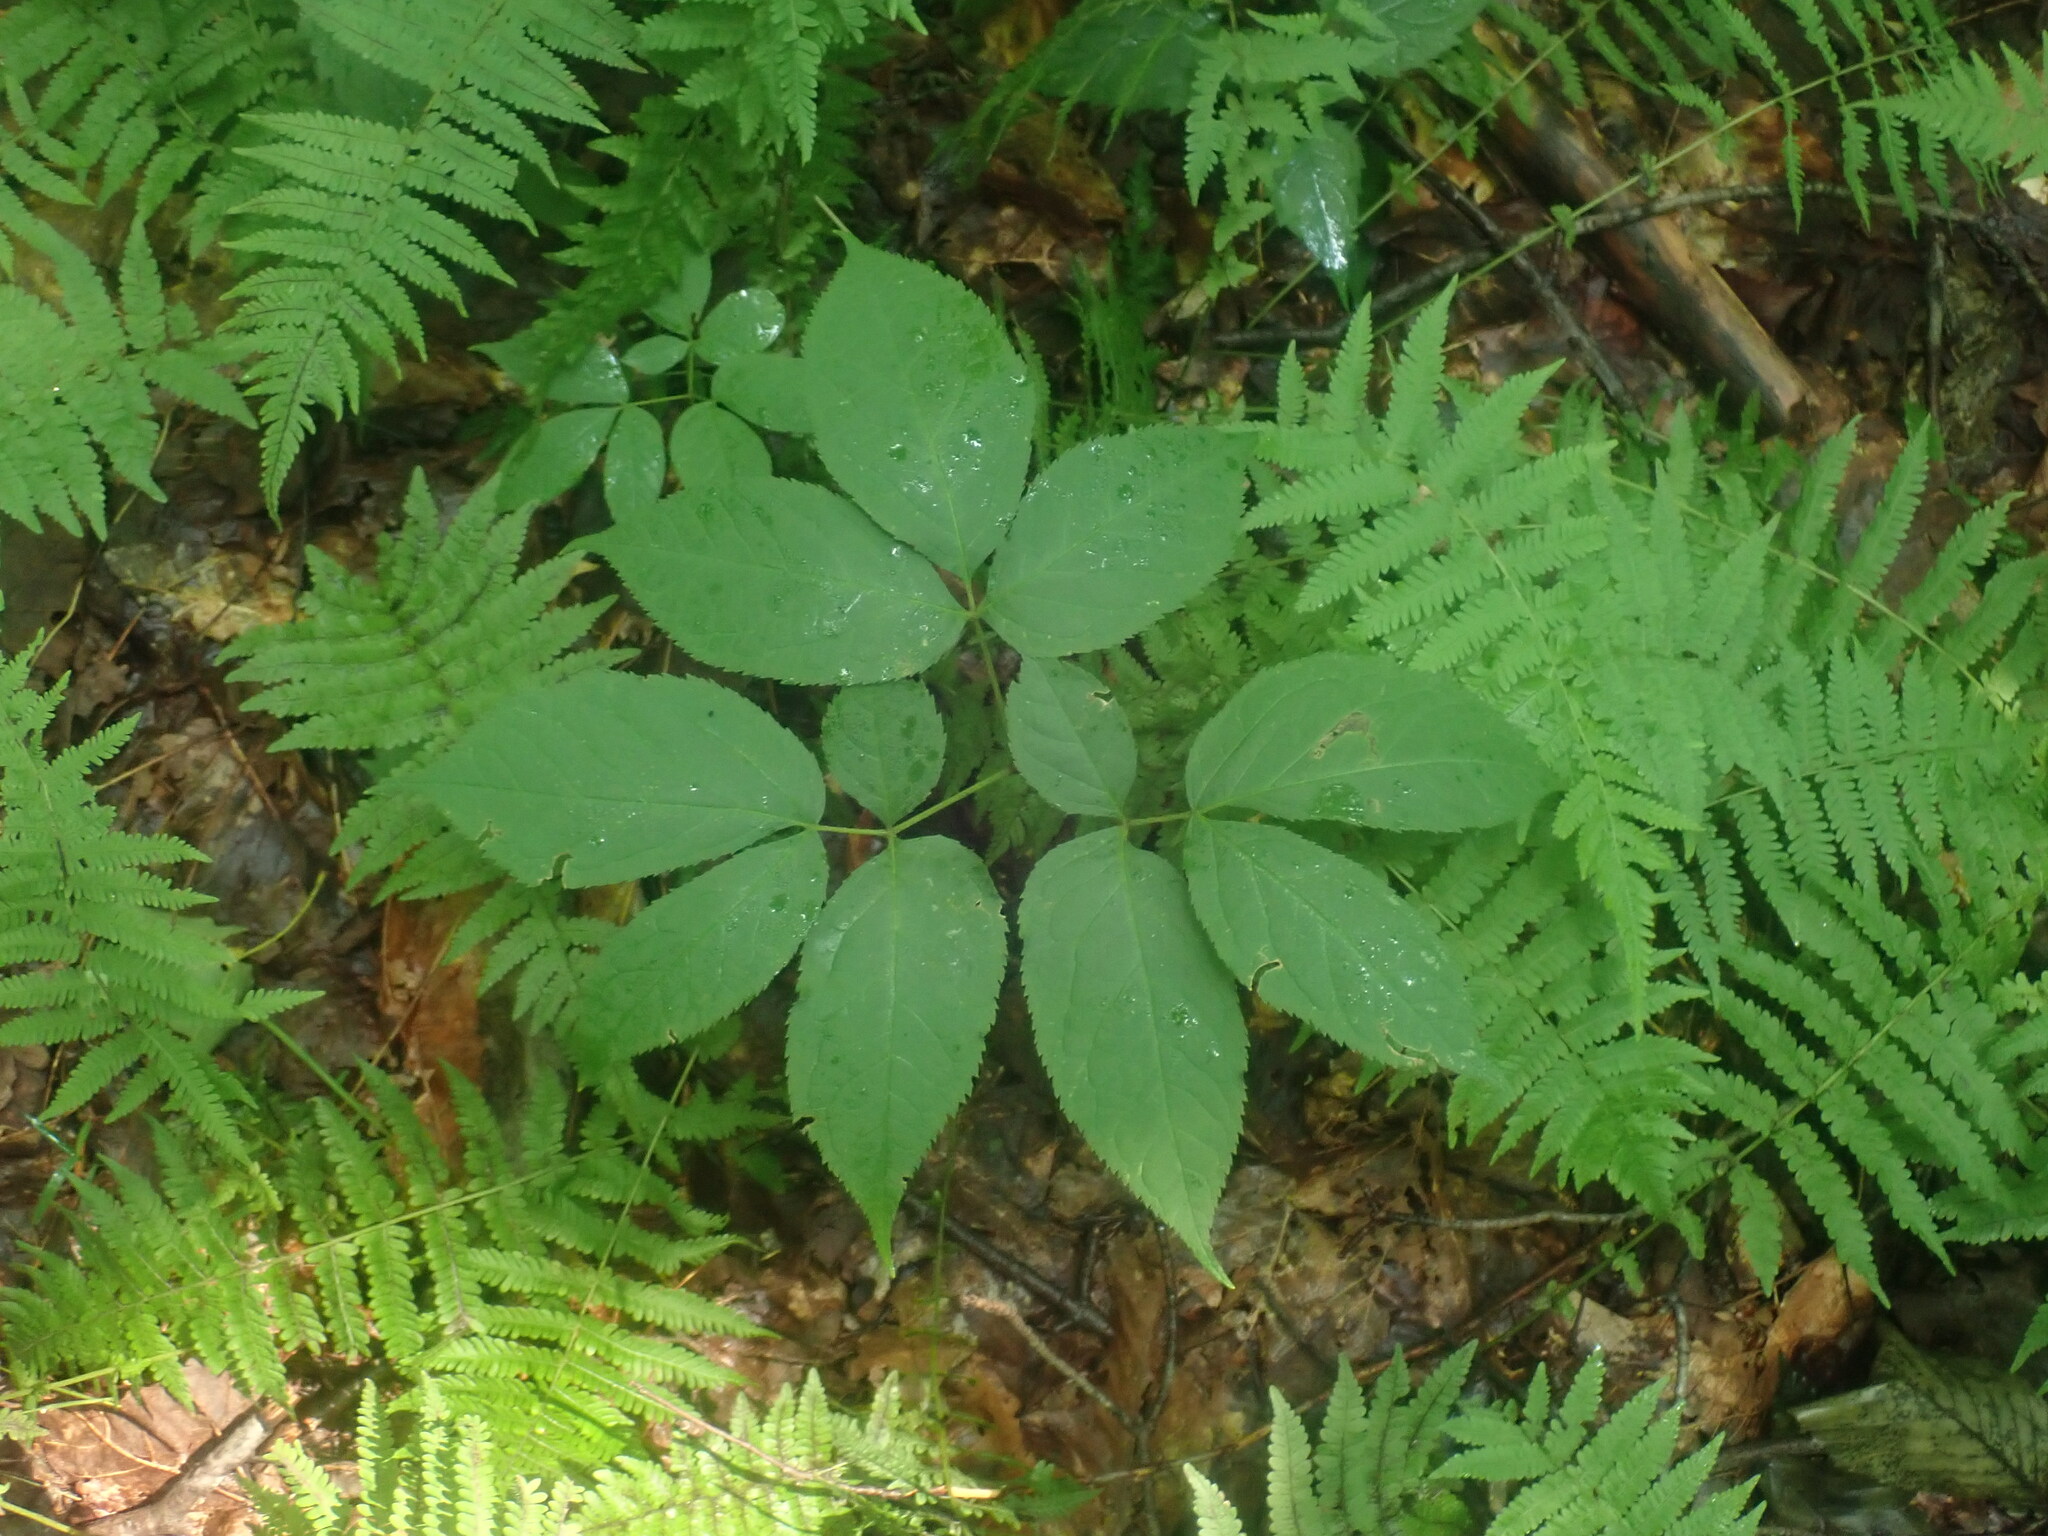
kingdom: Plantae
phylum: Tracheophyta
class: Magnoliopsida
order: Apiales
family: Araliaceae
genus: Aralia
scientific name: Aralia nudicaulis
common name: Wild sarsaparilla
